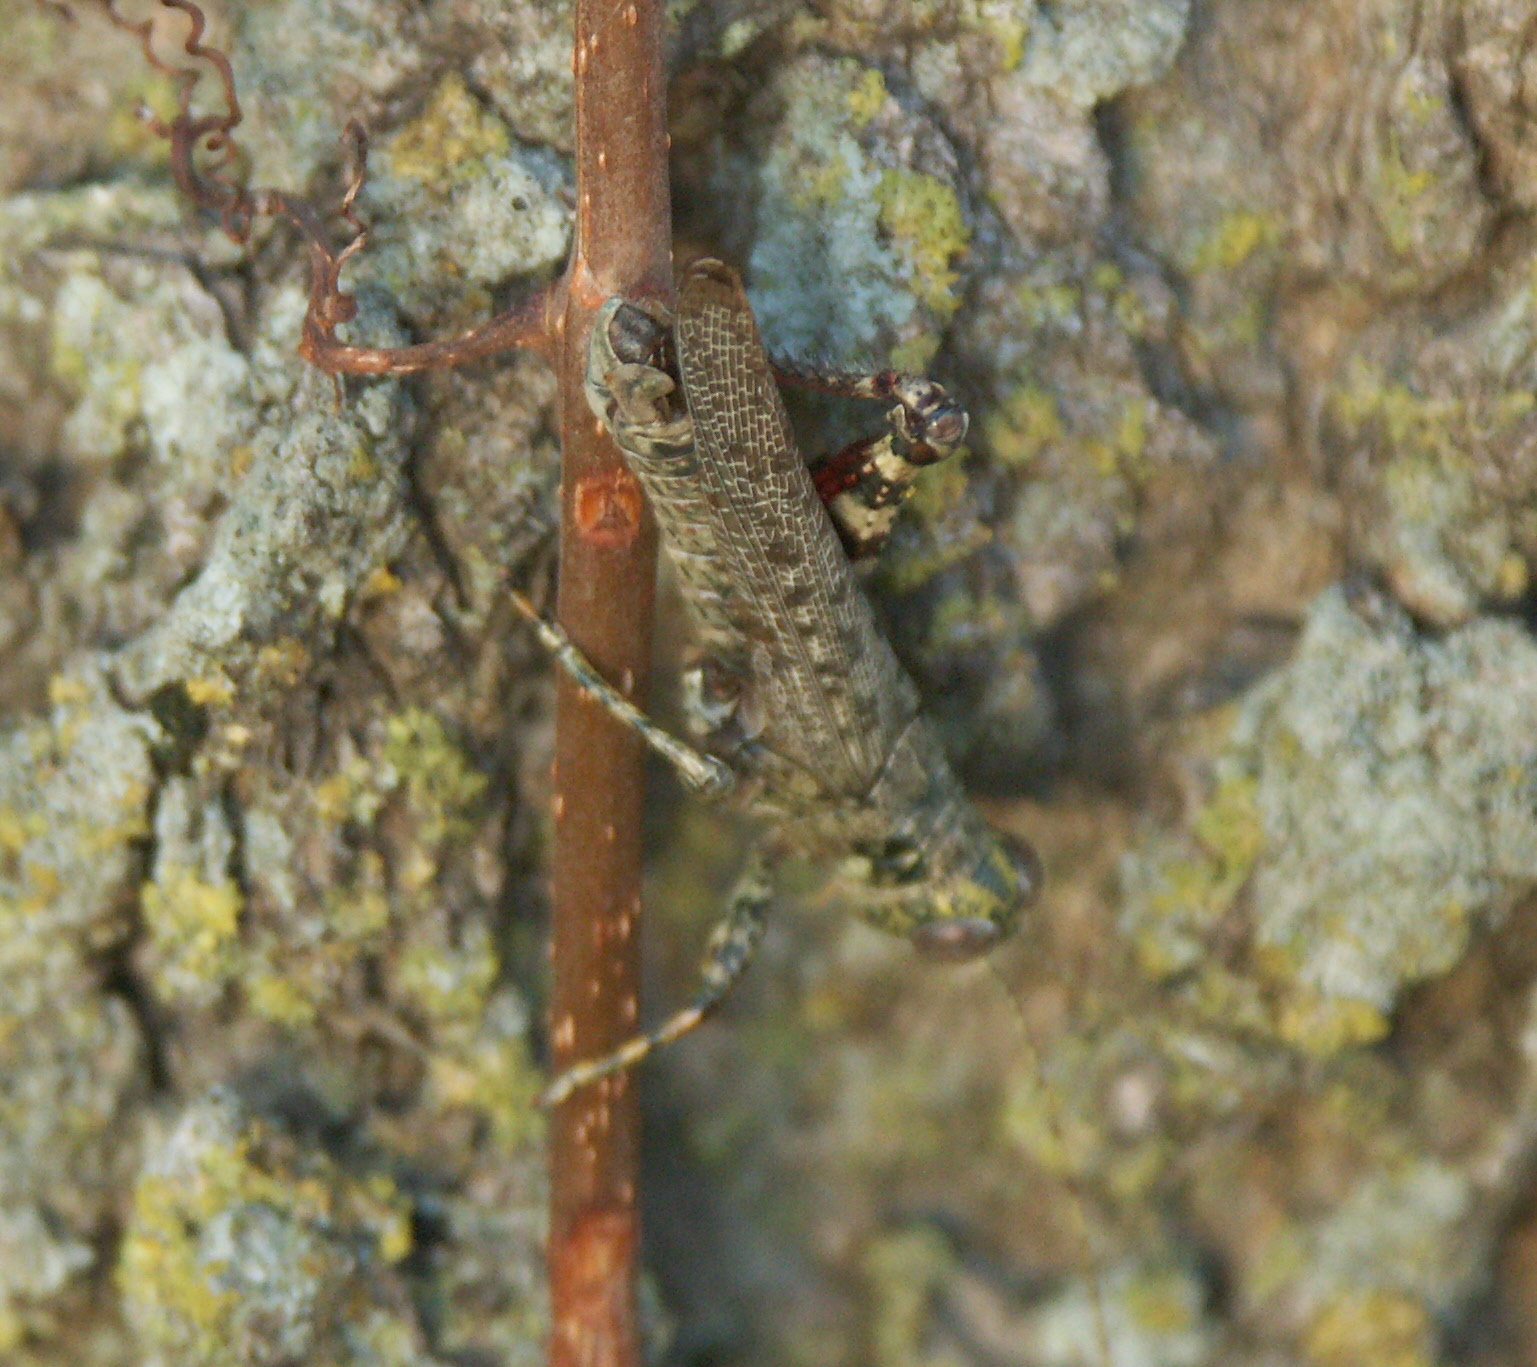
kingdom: Animalia
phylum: Arthropoda
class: Insecta
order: Orthoptera
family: Acrididae
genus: Melanoplus
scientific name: Melanoplus punctulatus
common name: Pine-tree spur-throat grasshopper
